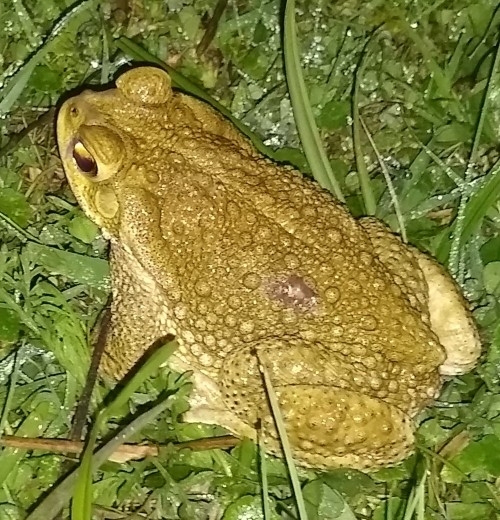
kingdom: Animalia
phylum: Chordata
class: Amphibia
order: Anura
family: Bufonidae
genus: Rhinella
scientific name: Rhinella arenarum
